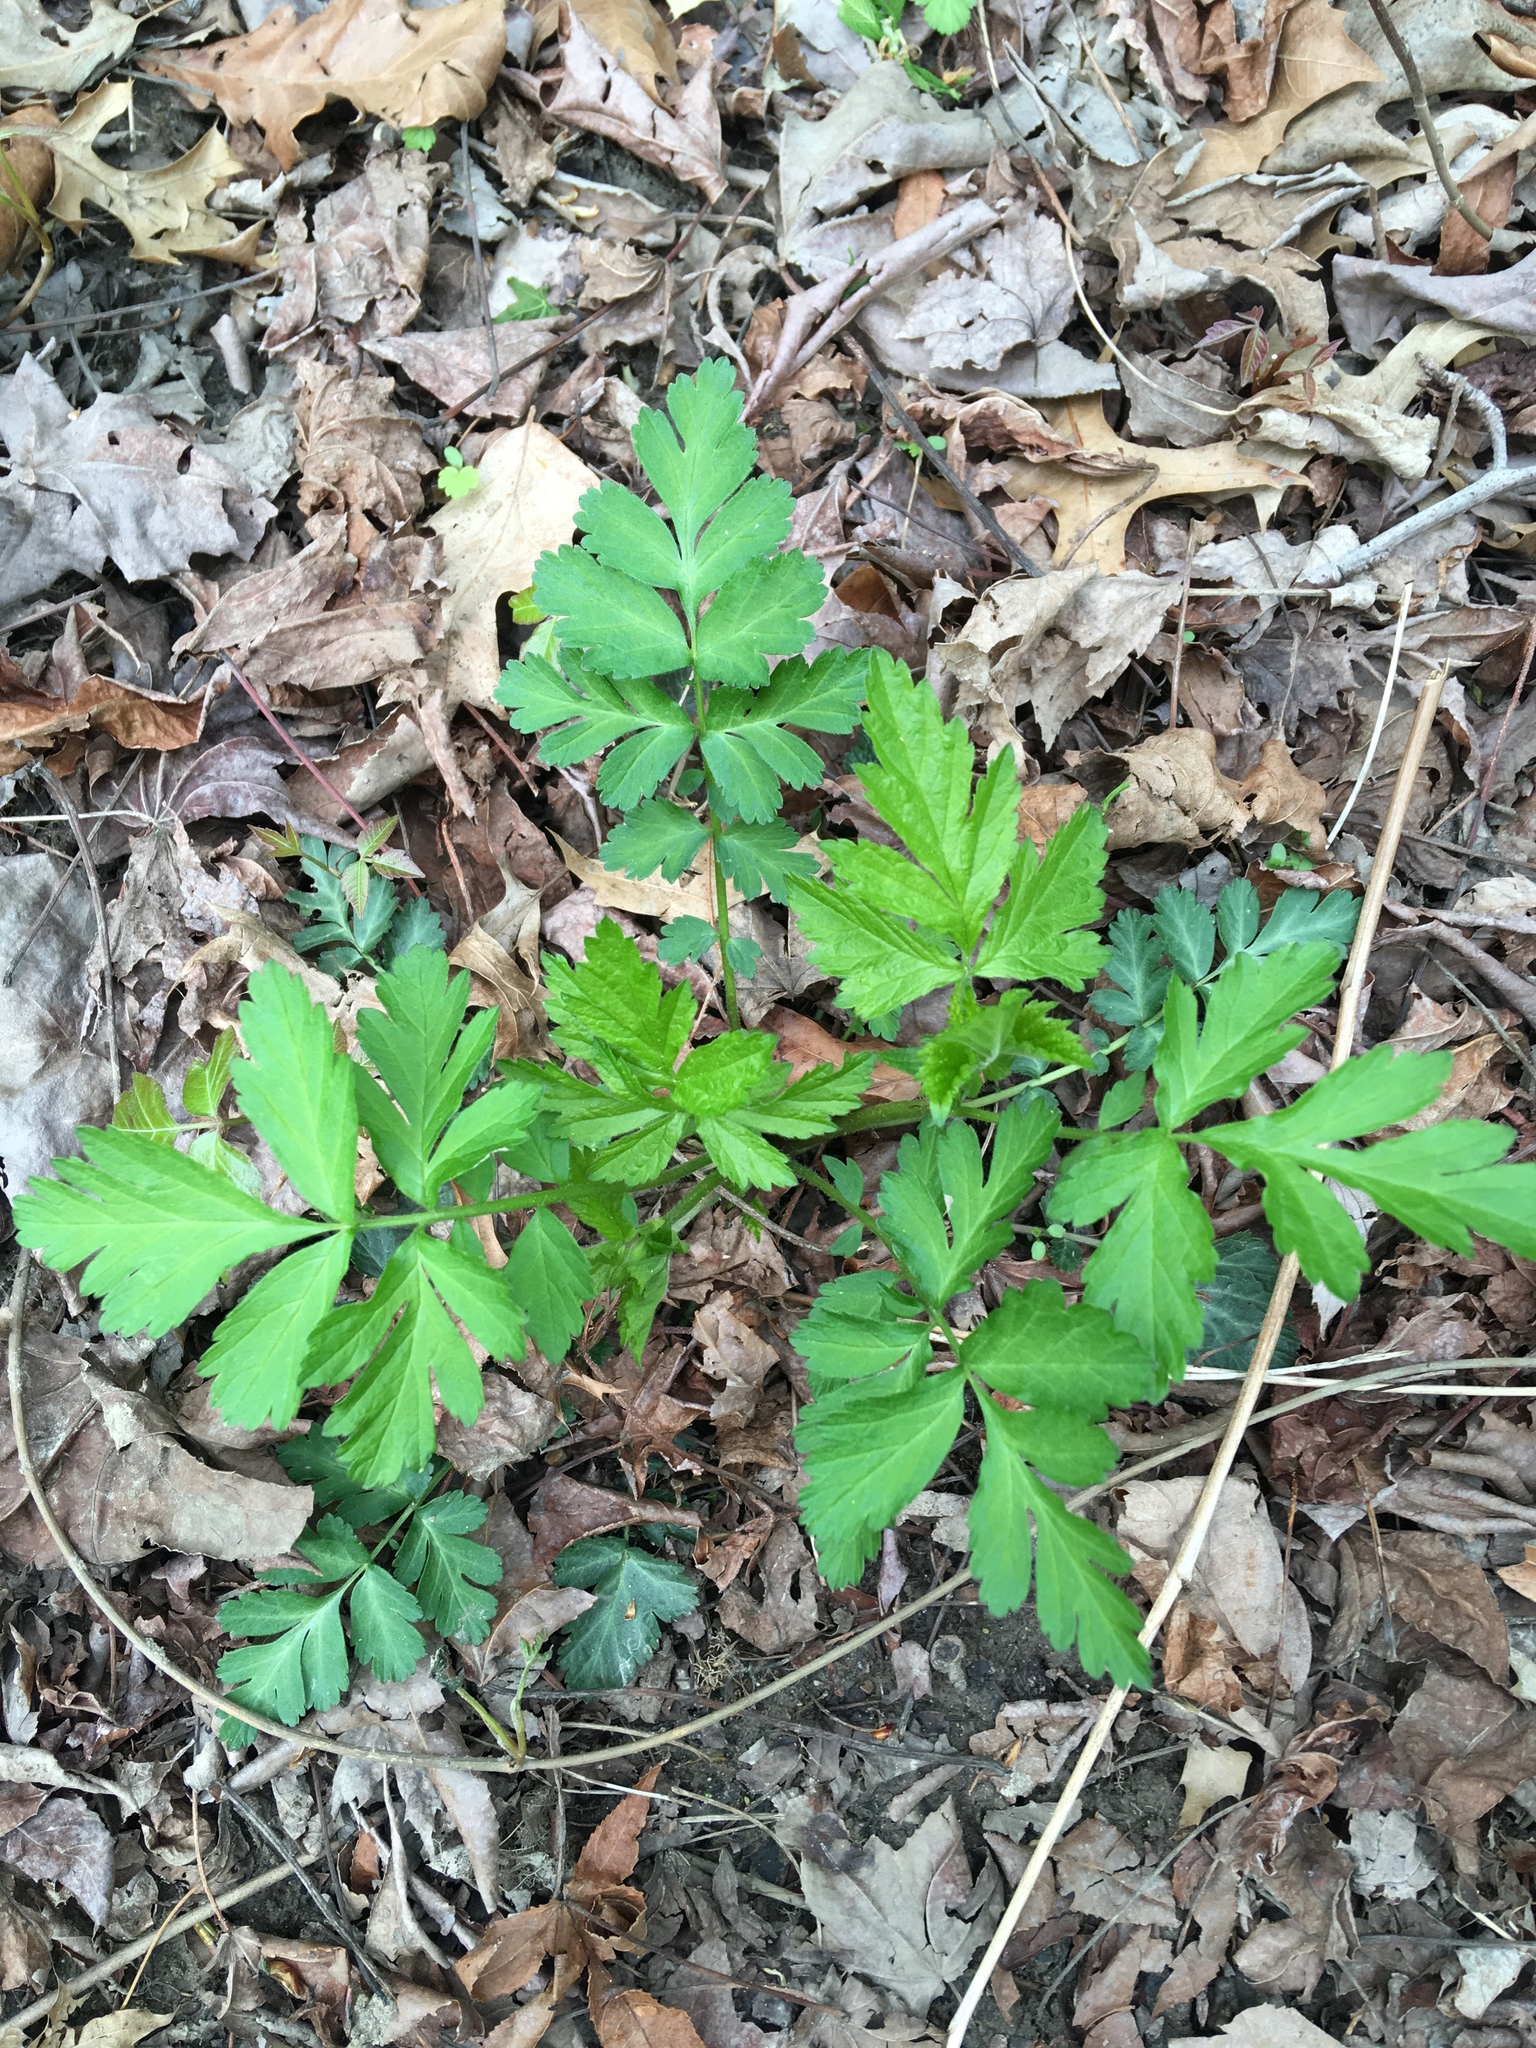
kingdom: Plantae
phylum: Tracheophyta
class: Magnoliopsida
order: Rosales
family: Rosaceae
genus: Geum
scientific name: Geum canadense
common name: White avens
